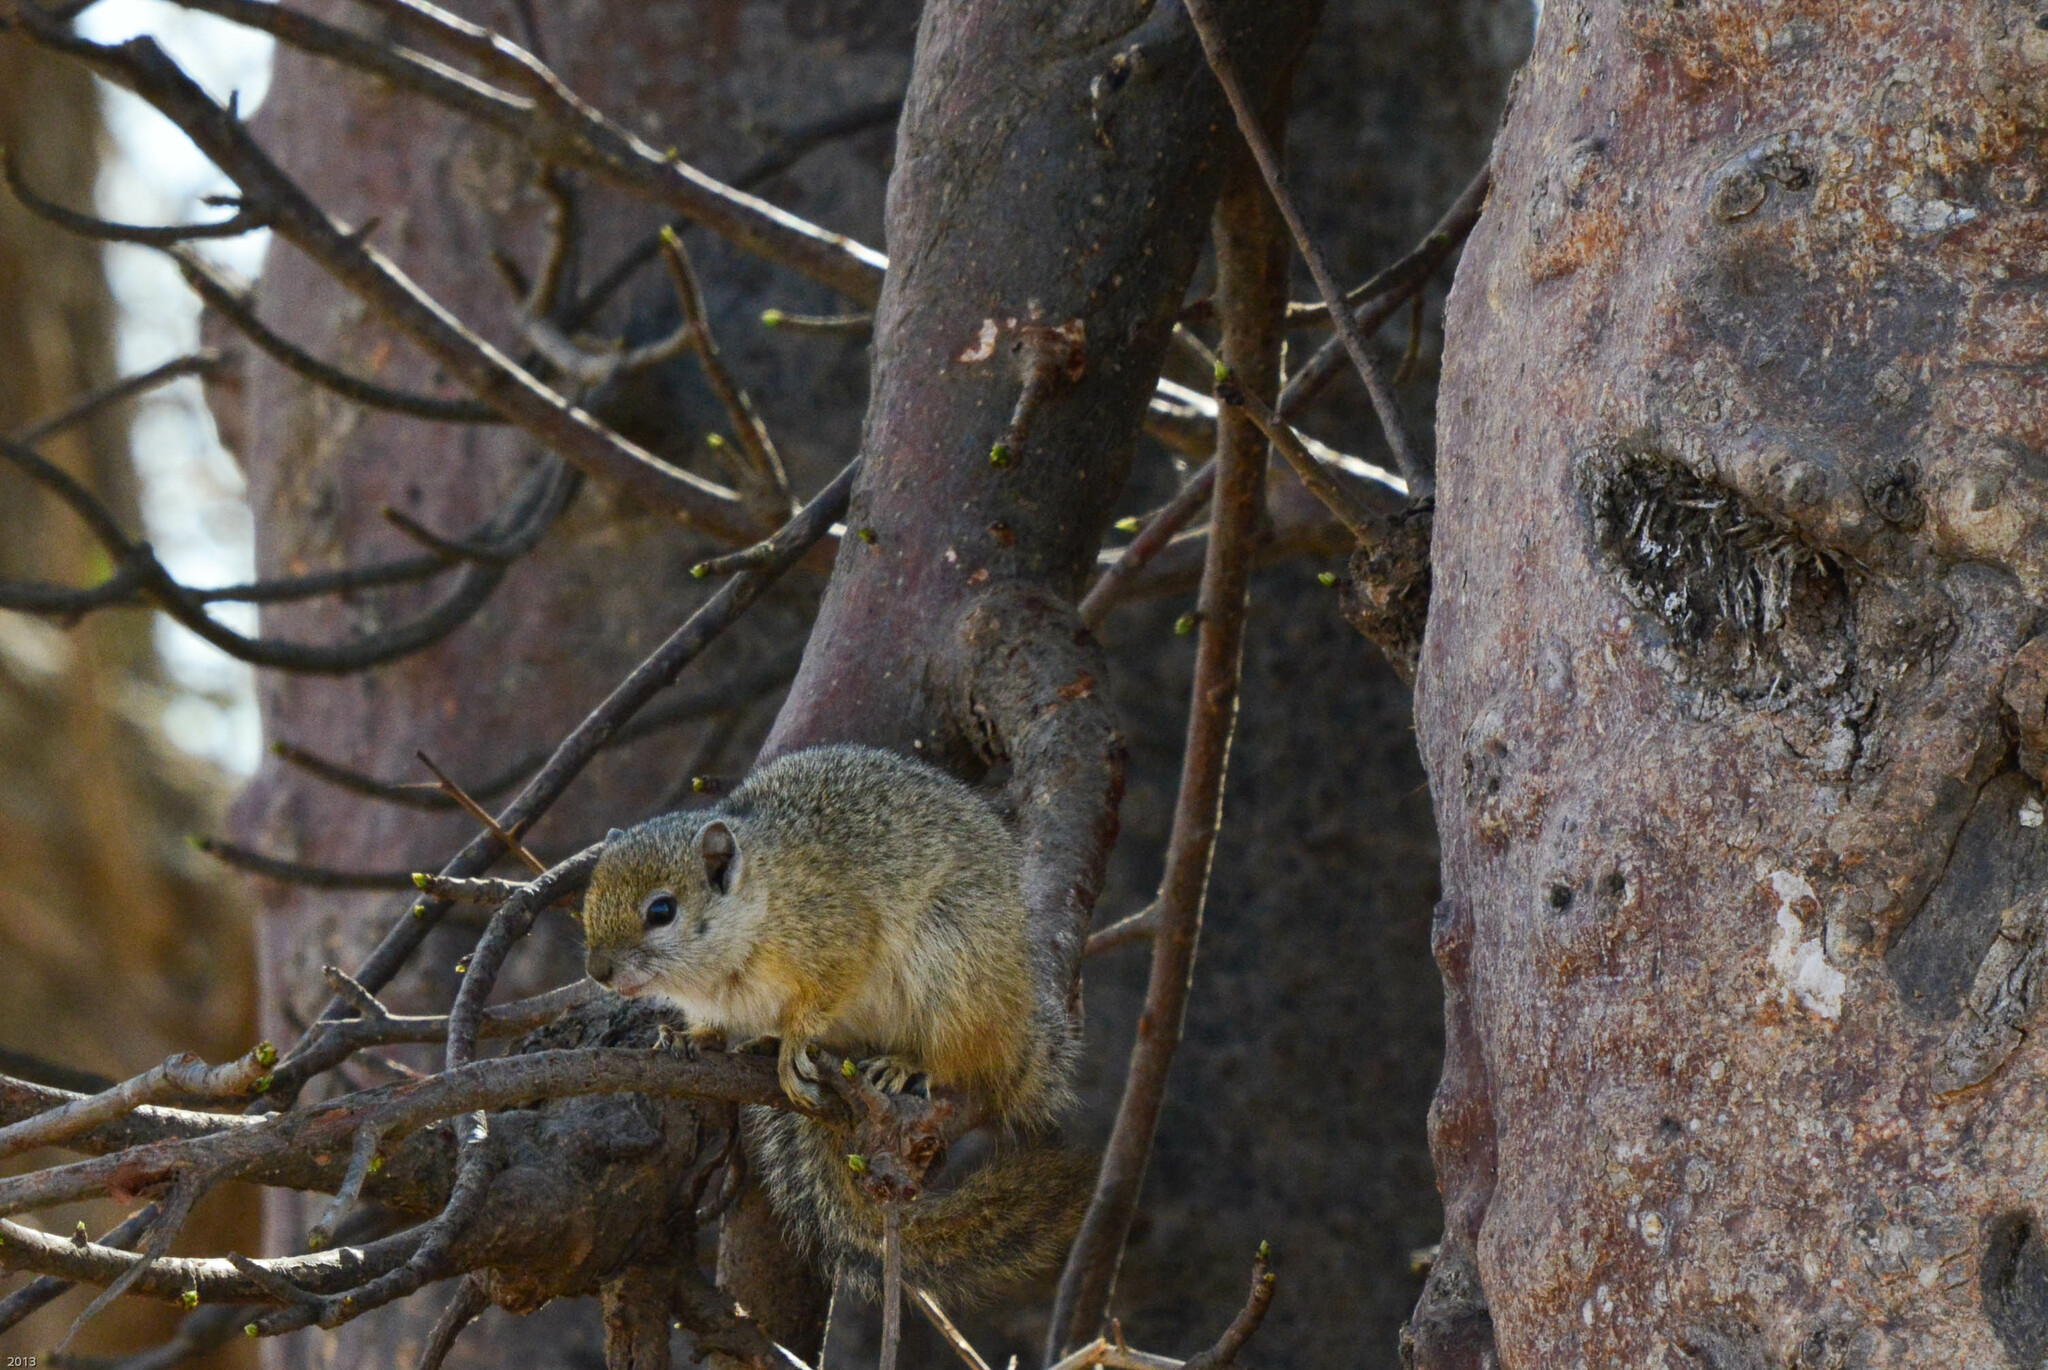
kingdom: Animalia
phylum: Chordata
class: Mammalia
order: Rodentia
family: Sciuridae
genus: Paraxerus
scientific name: Paraxerus cepapi
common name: Smith's bush squirrel
